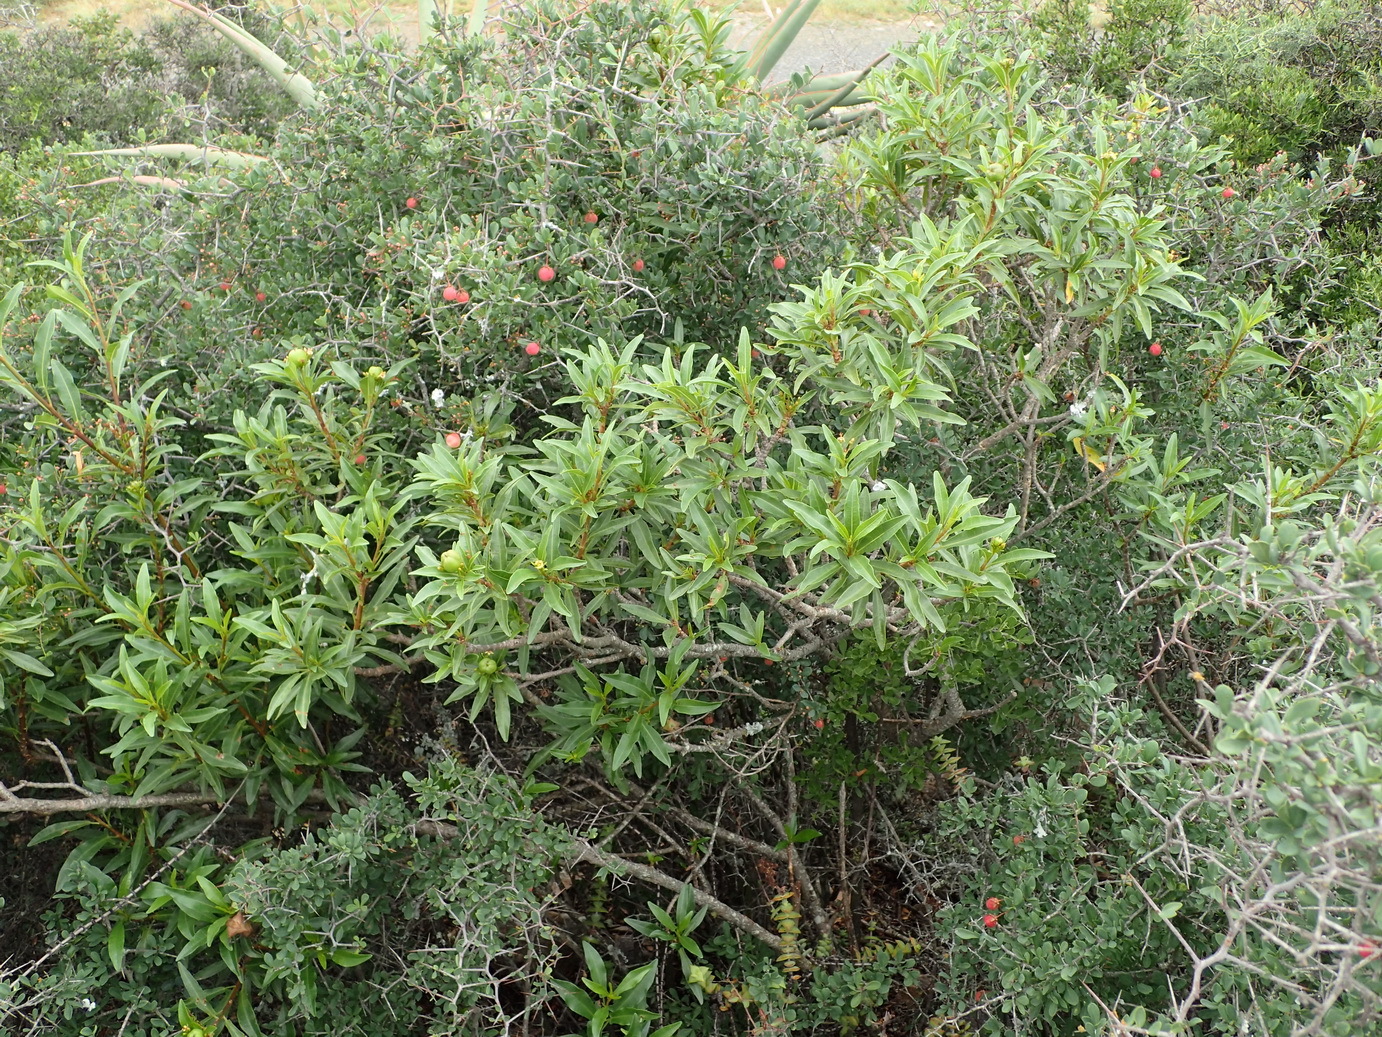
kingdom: Plantae
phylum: Tracheophyta
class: Magnoliopsida
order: Malpighiales
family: Euphorbiaceae
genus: Jatropha
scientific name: Jatropha capensis
